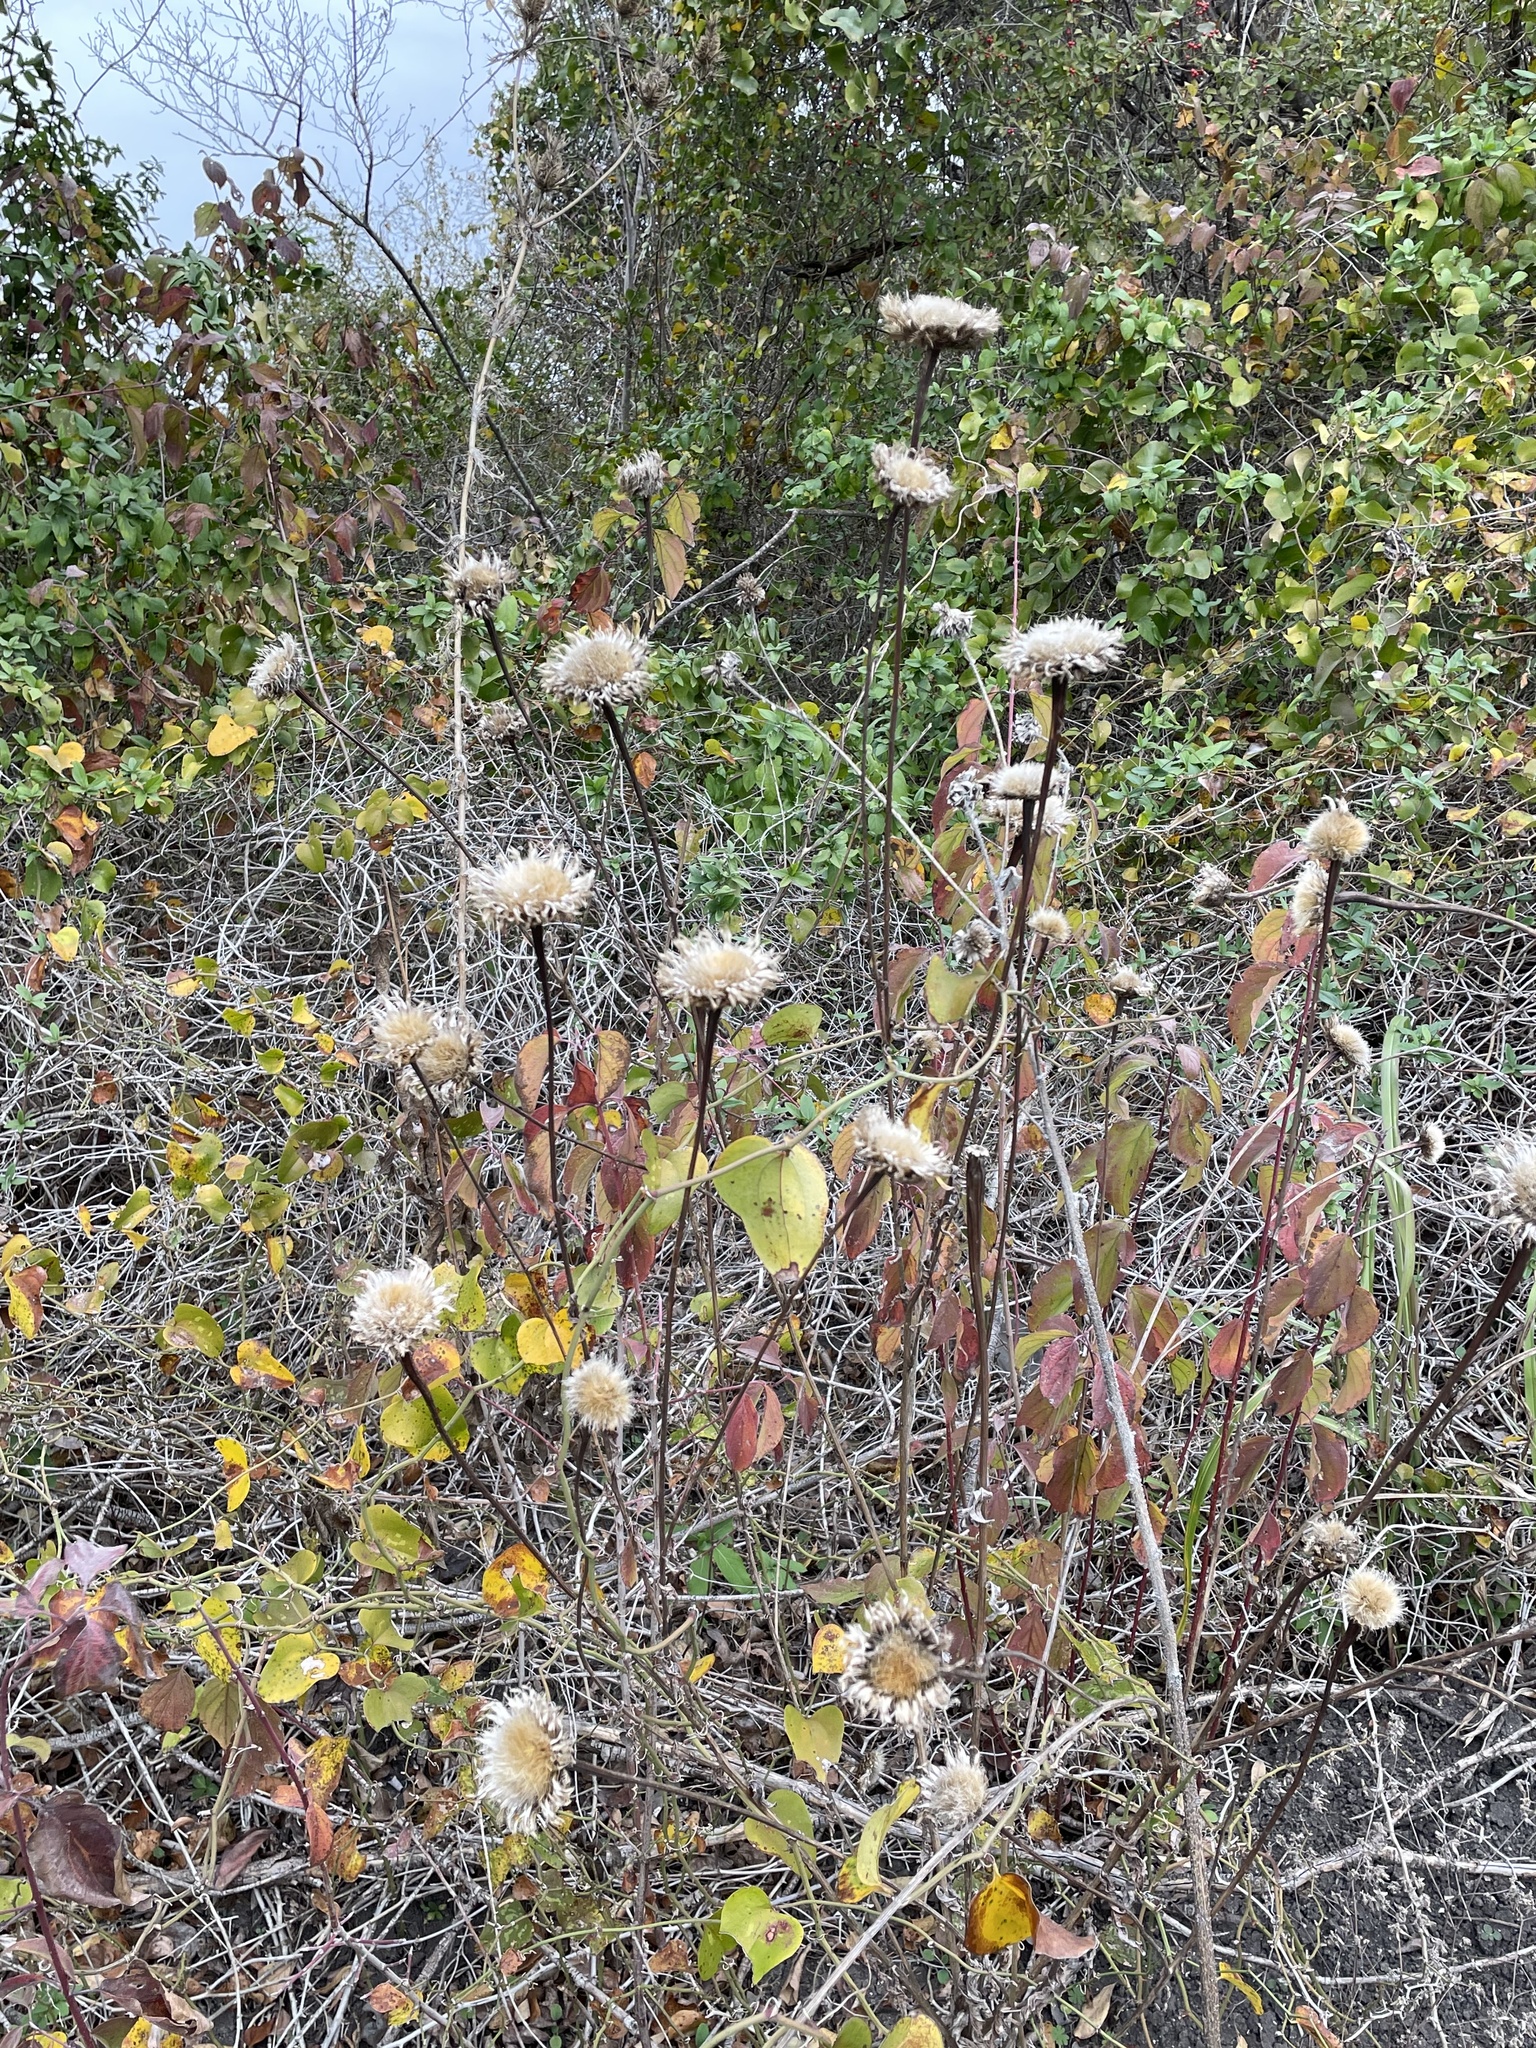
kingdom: Plantae
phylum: Tracheophyta
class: Magnoliopsida
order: Asterales
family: Asteraceae
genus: Plectocephalus
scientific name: Plectocephalus americanus
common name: American basket-flower
